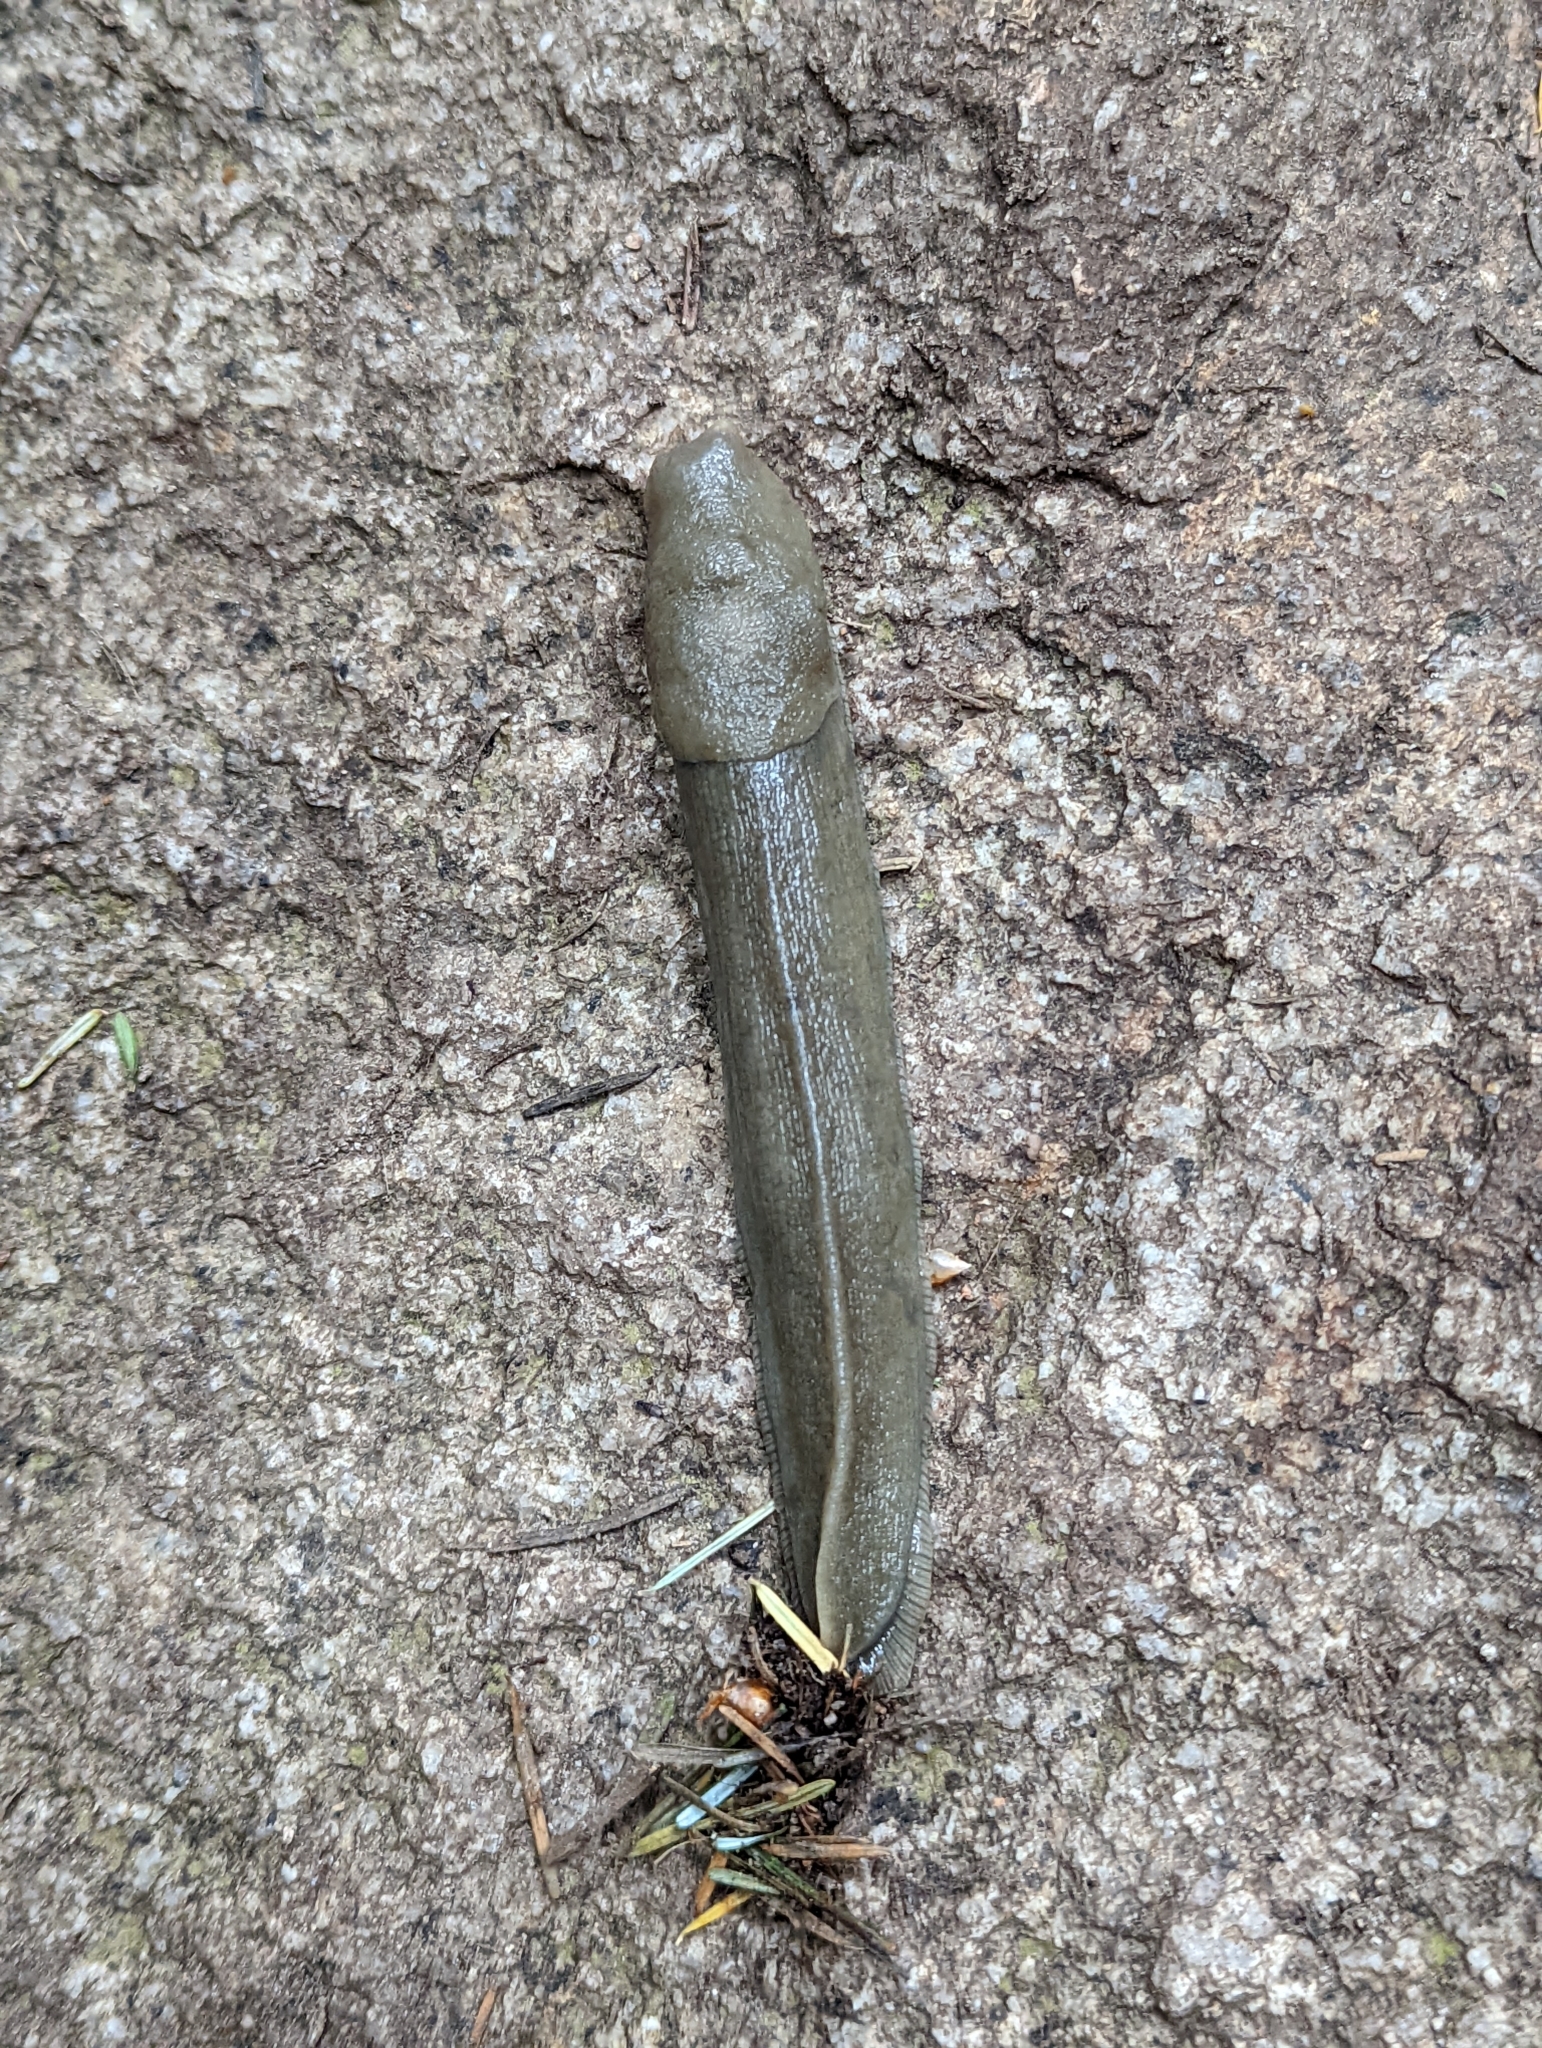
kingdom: Animalia
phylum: Mollusca
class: Gastropoda
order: Stylommatophora
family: Ariolimacidae
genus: Ariolimax
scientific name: Ariolimax columbianus
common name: Pacific banana slug
